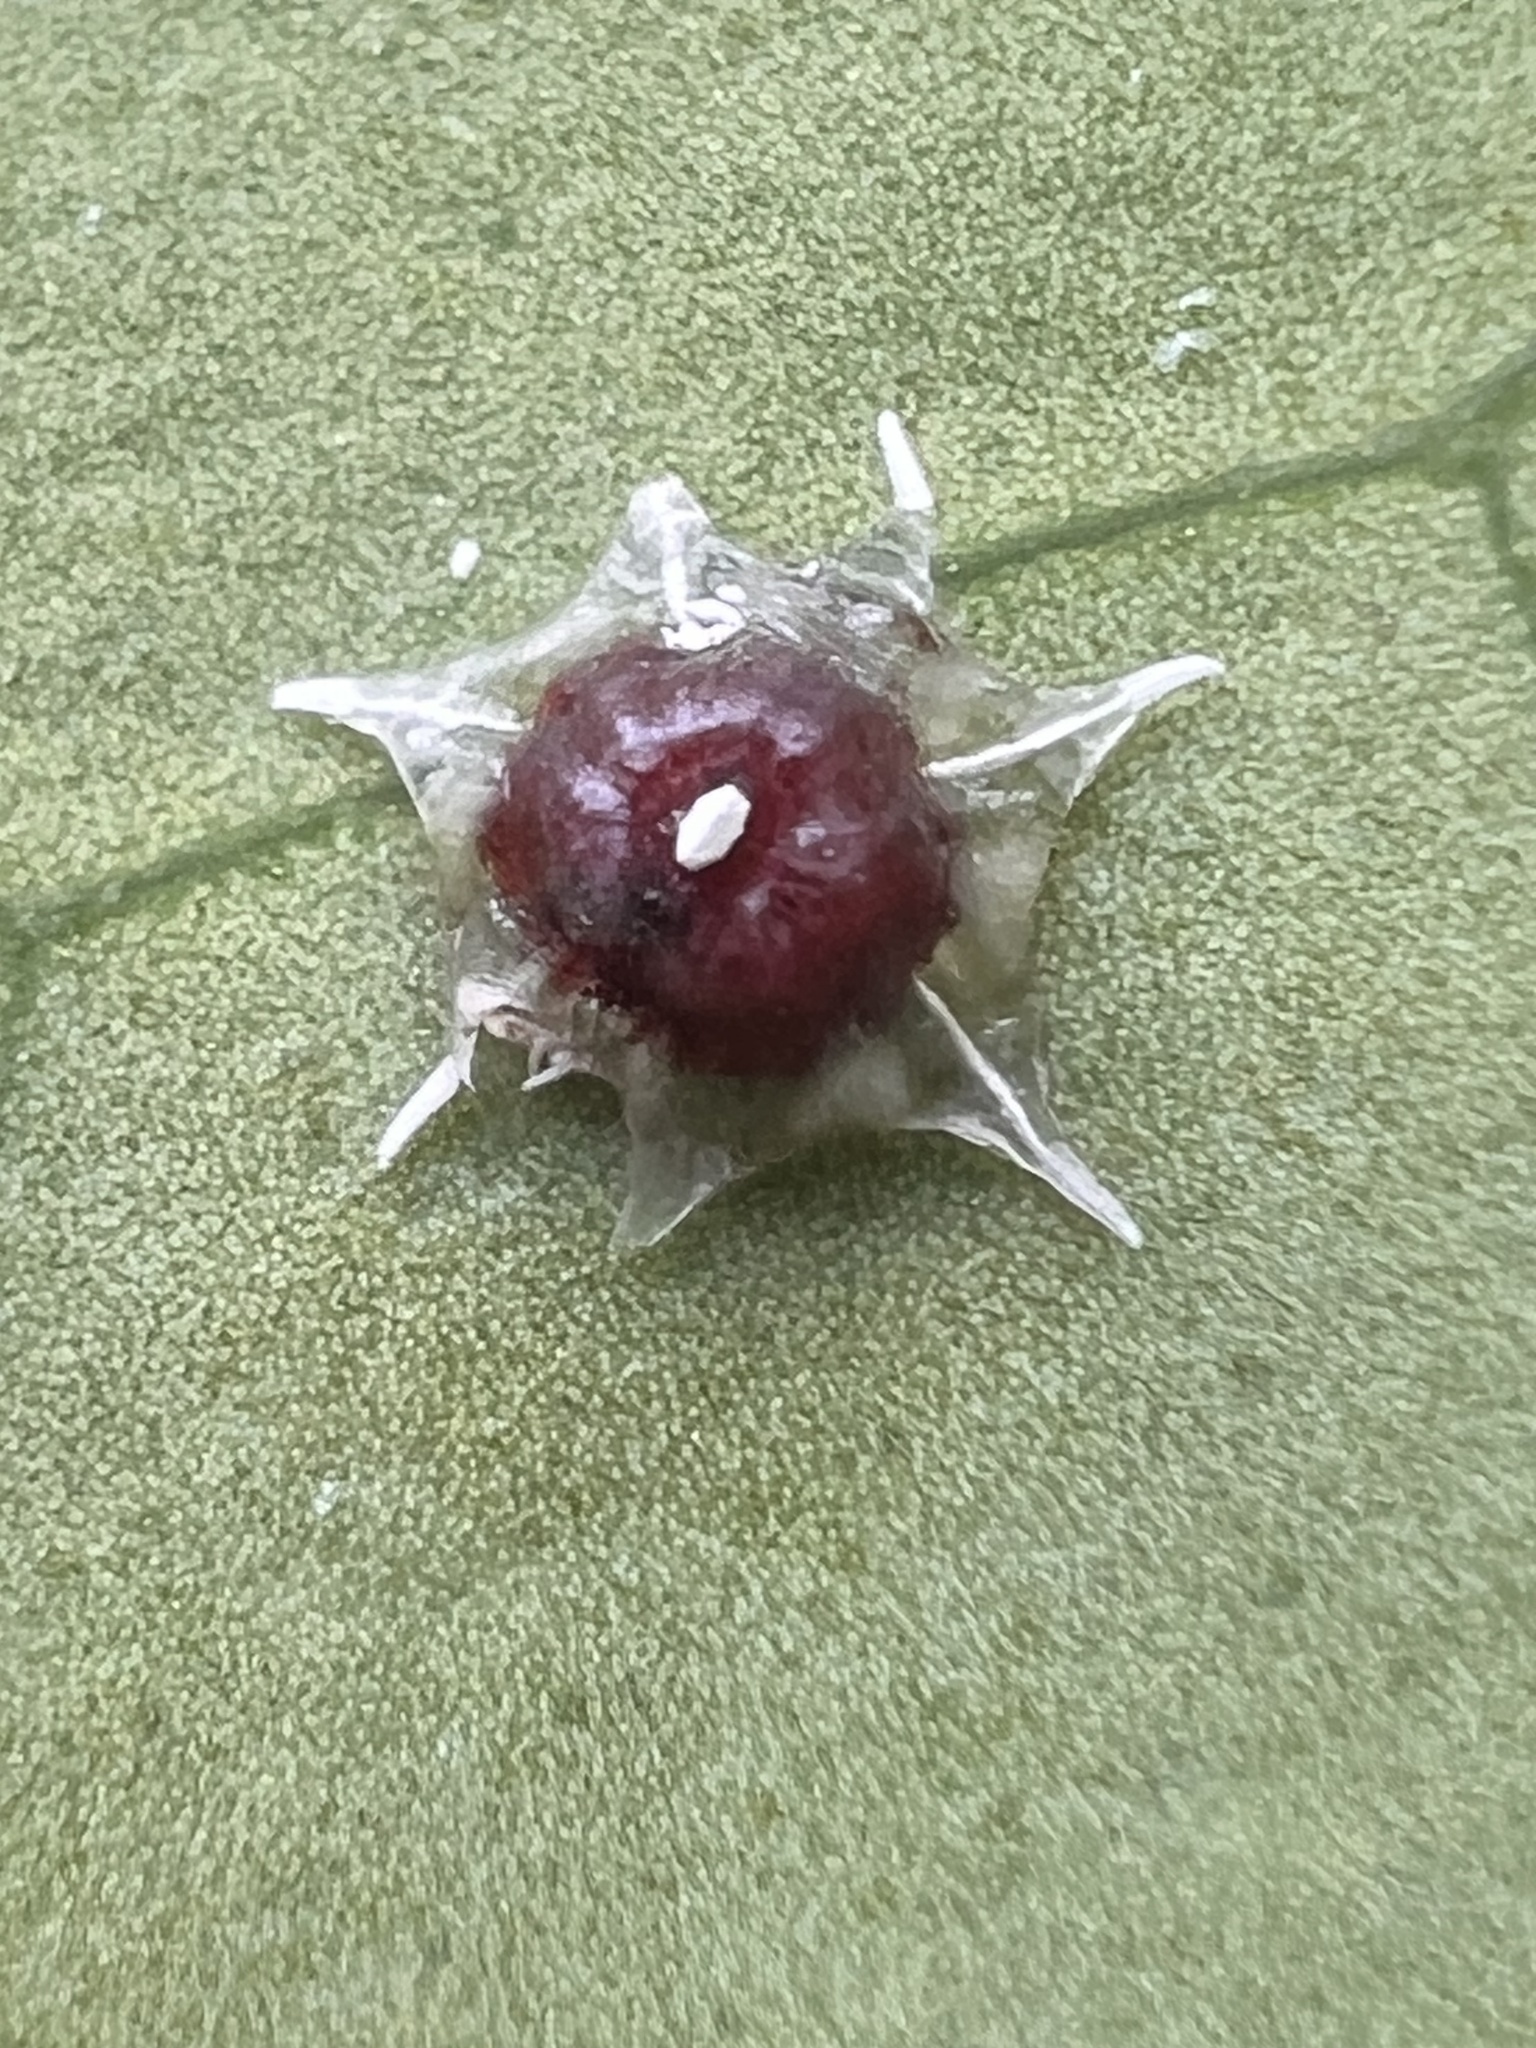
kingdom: Animalia
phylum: Arthropoda
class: Insecta
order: Hemiptera
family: Coccidae
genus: Ceroplastes
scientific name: Ceroplastes stellifer
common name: Scale insect
